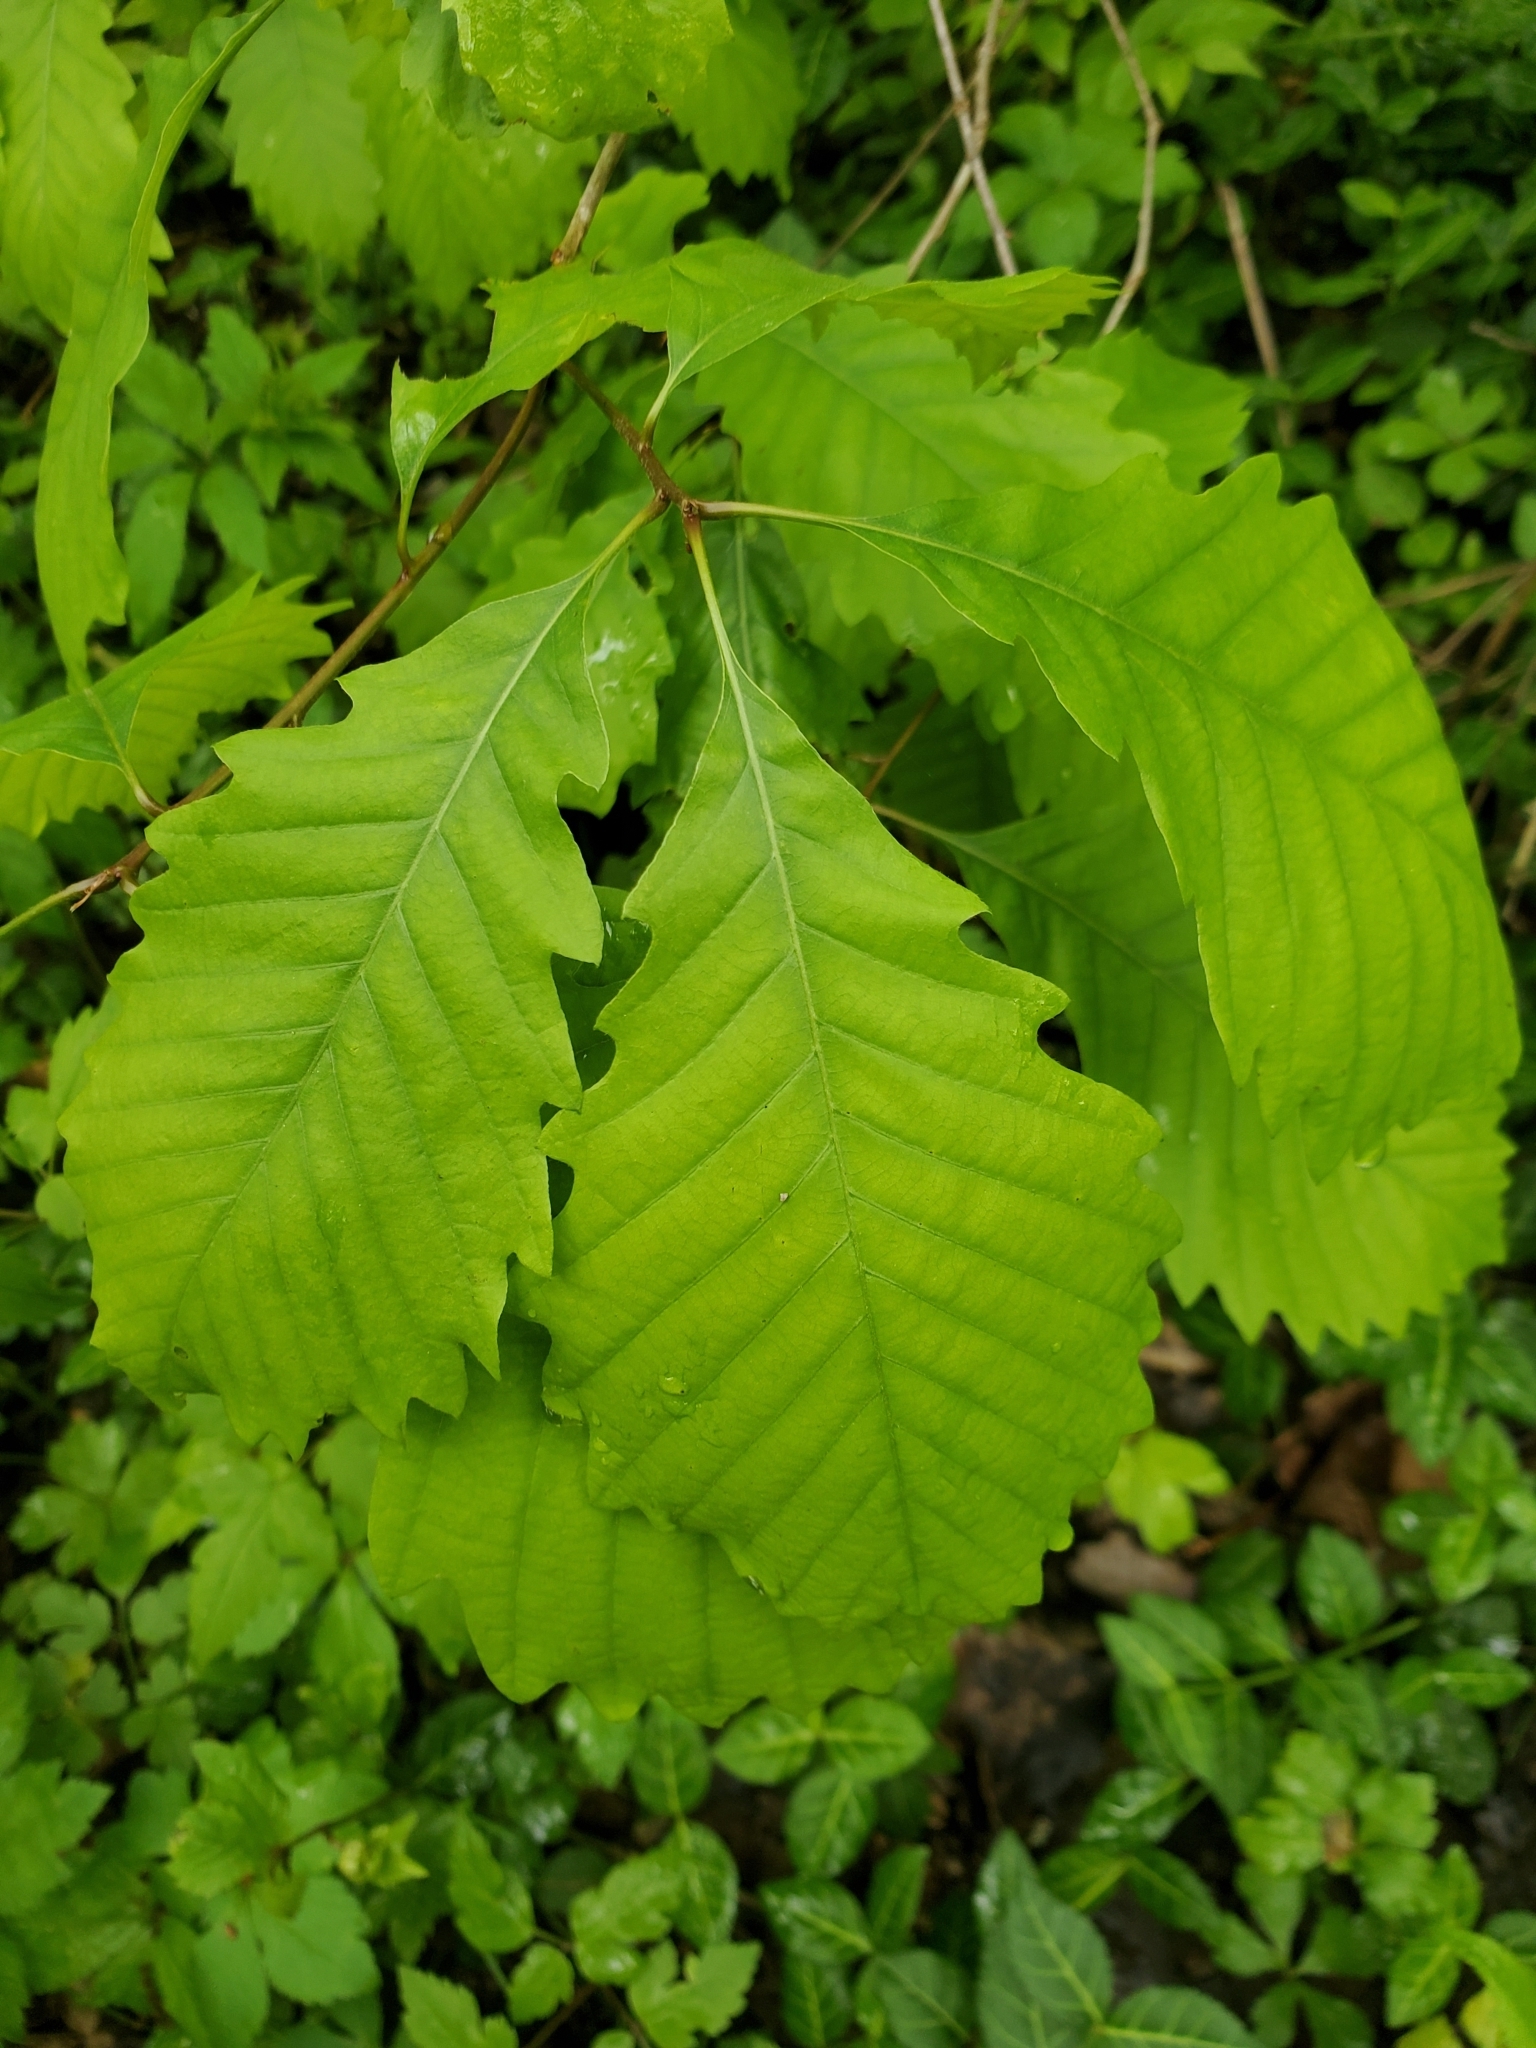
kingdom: Plantae
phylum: Tracheophyta
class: Magnoliopsida
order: Fagales
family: Fagaceae
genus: Quercus
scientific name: Quercus montana
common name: Chestnut oak
